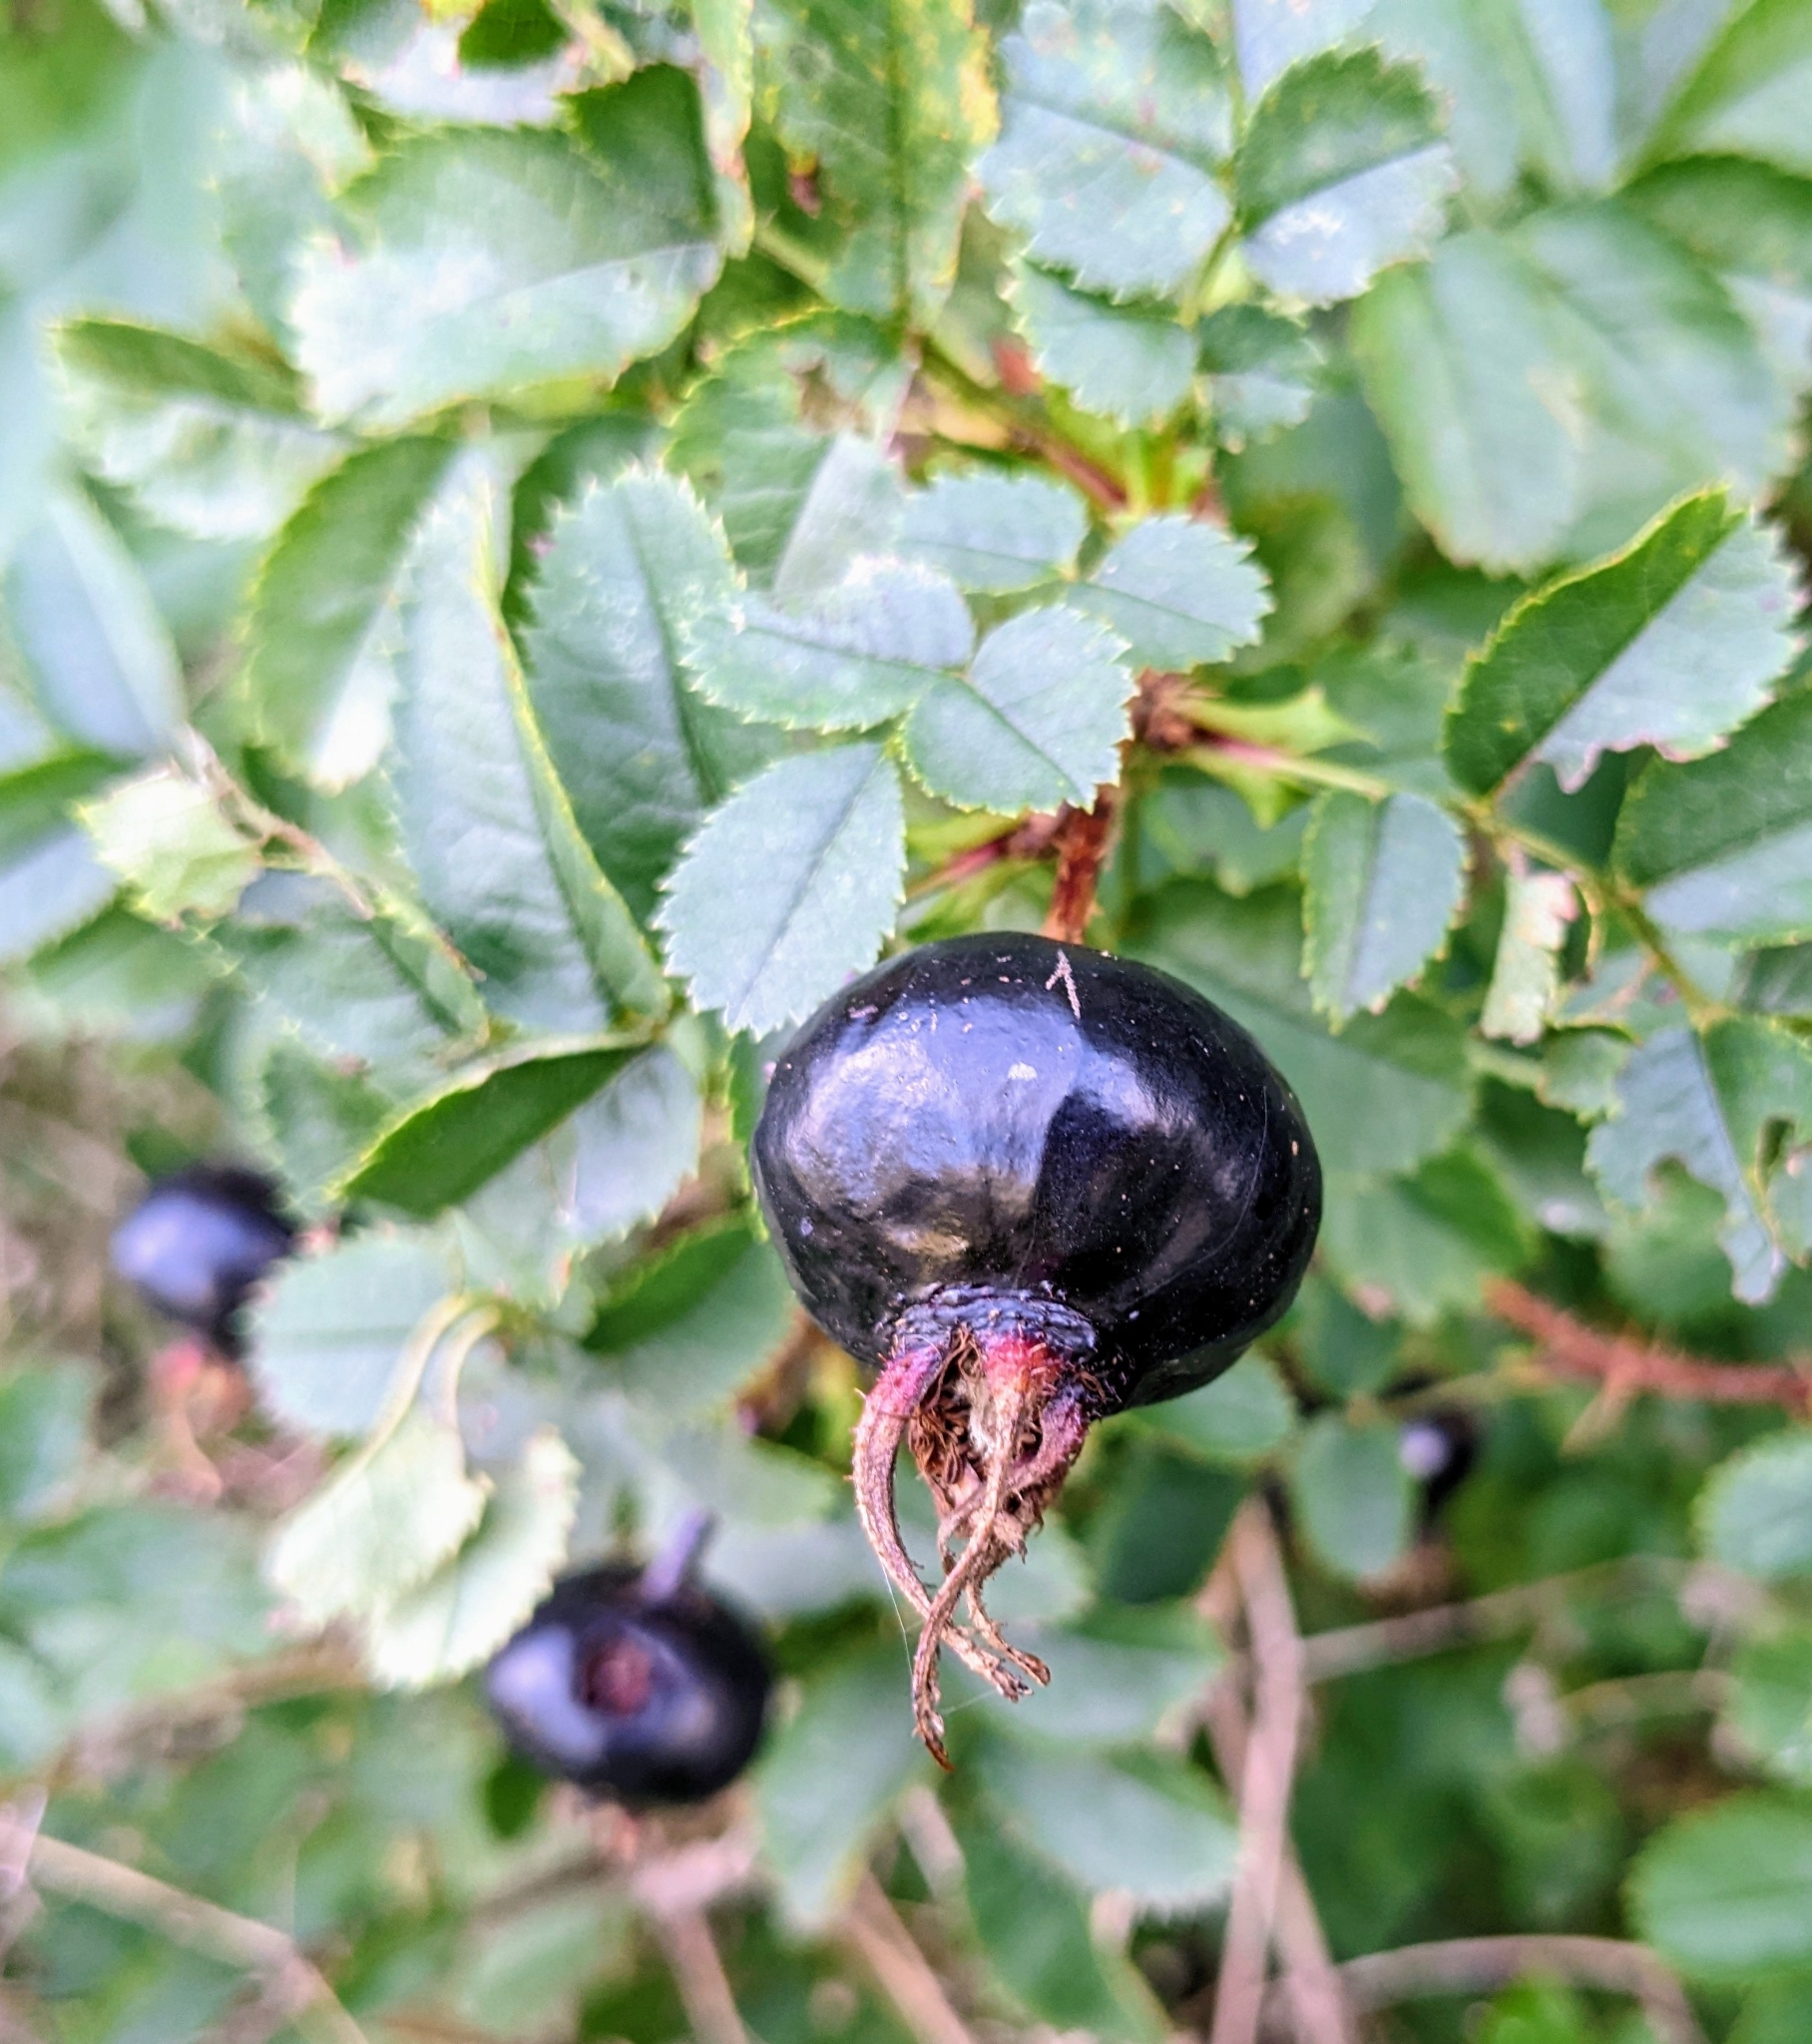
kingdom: Plantae
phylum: Tracheophyta
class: Magnoliopsida
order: Rosales
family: Rosaceae
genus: Rosa
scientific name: Rosa spinosissima
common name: Burnet rose
